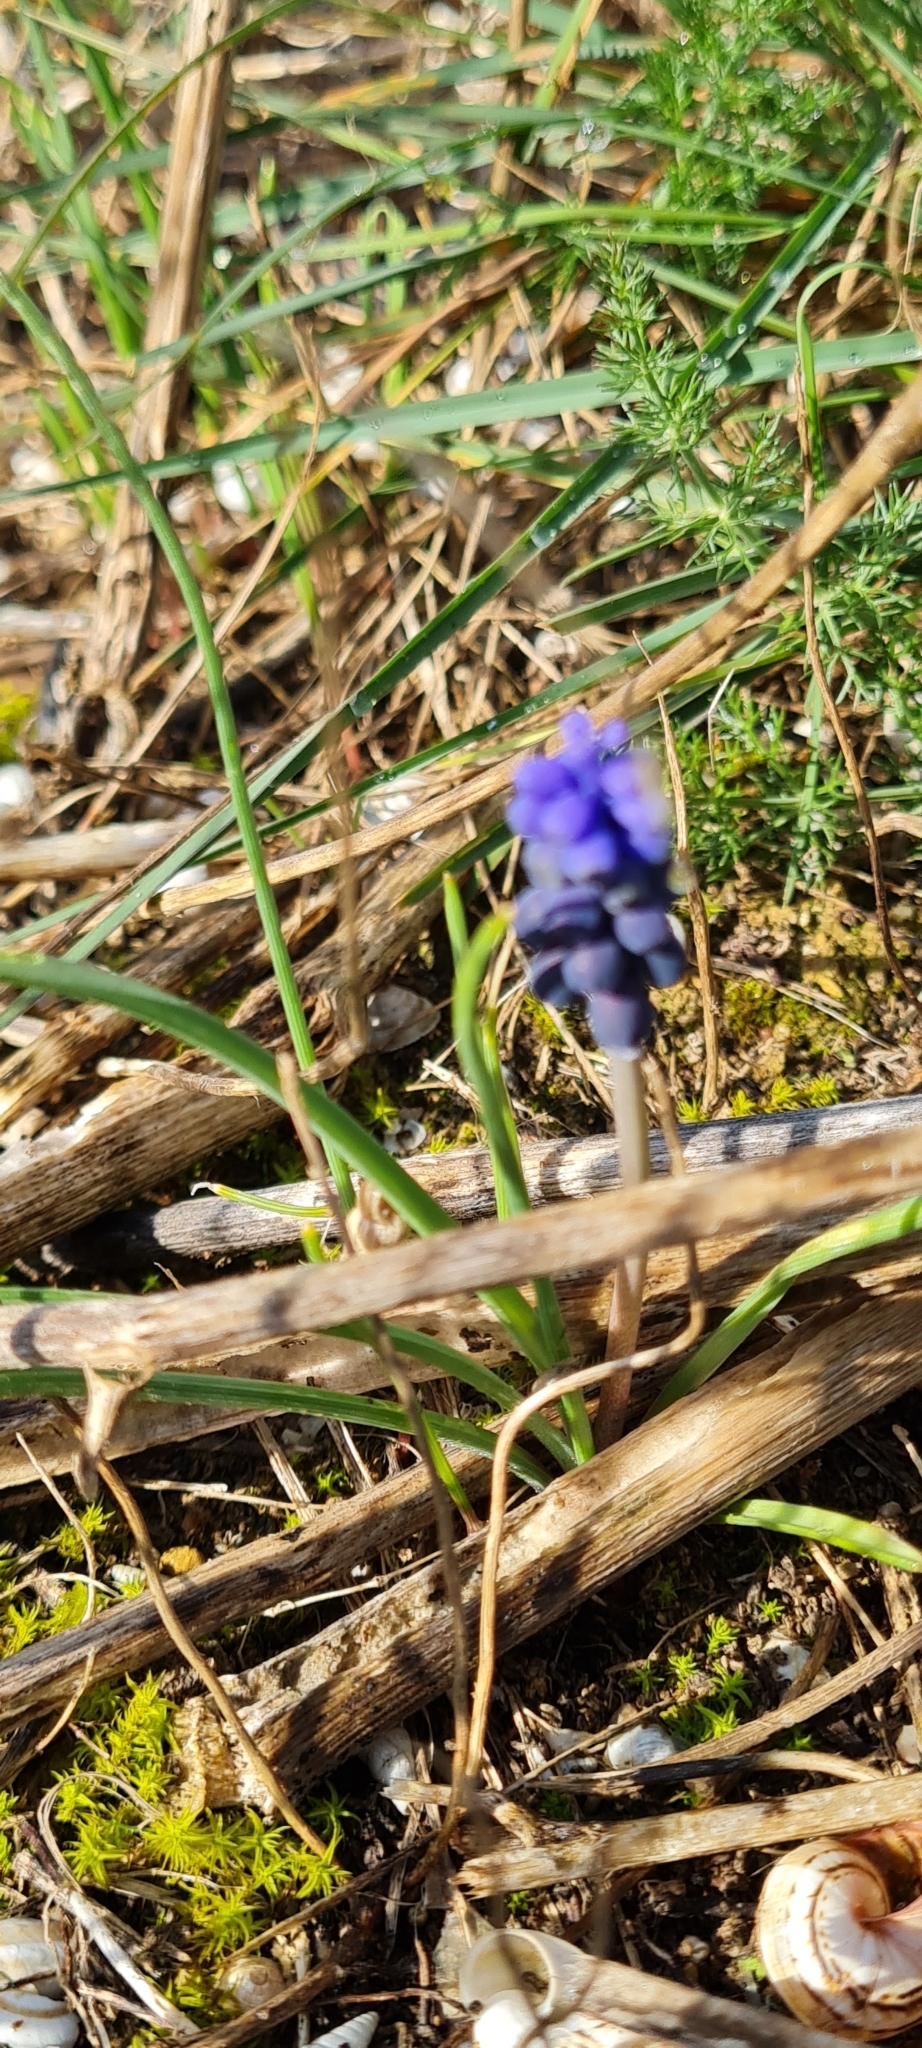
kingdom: Plantae
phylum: Tracheophyta
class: Liliopsida
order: Asparagales
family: Asparagaceae
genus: Muscari
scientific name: Muscari neglectum
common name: Grape-hyacinth
